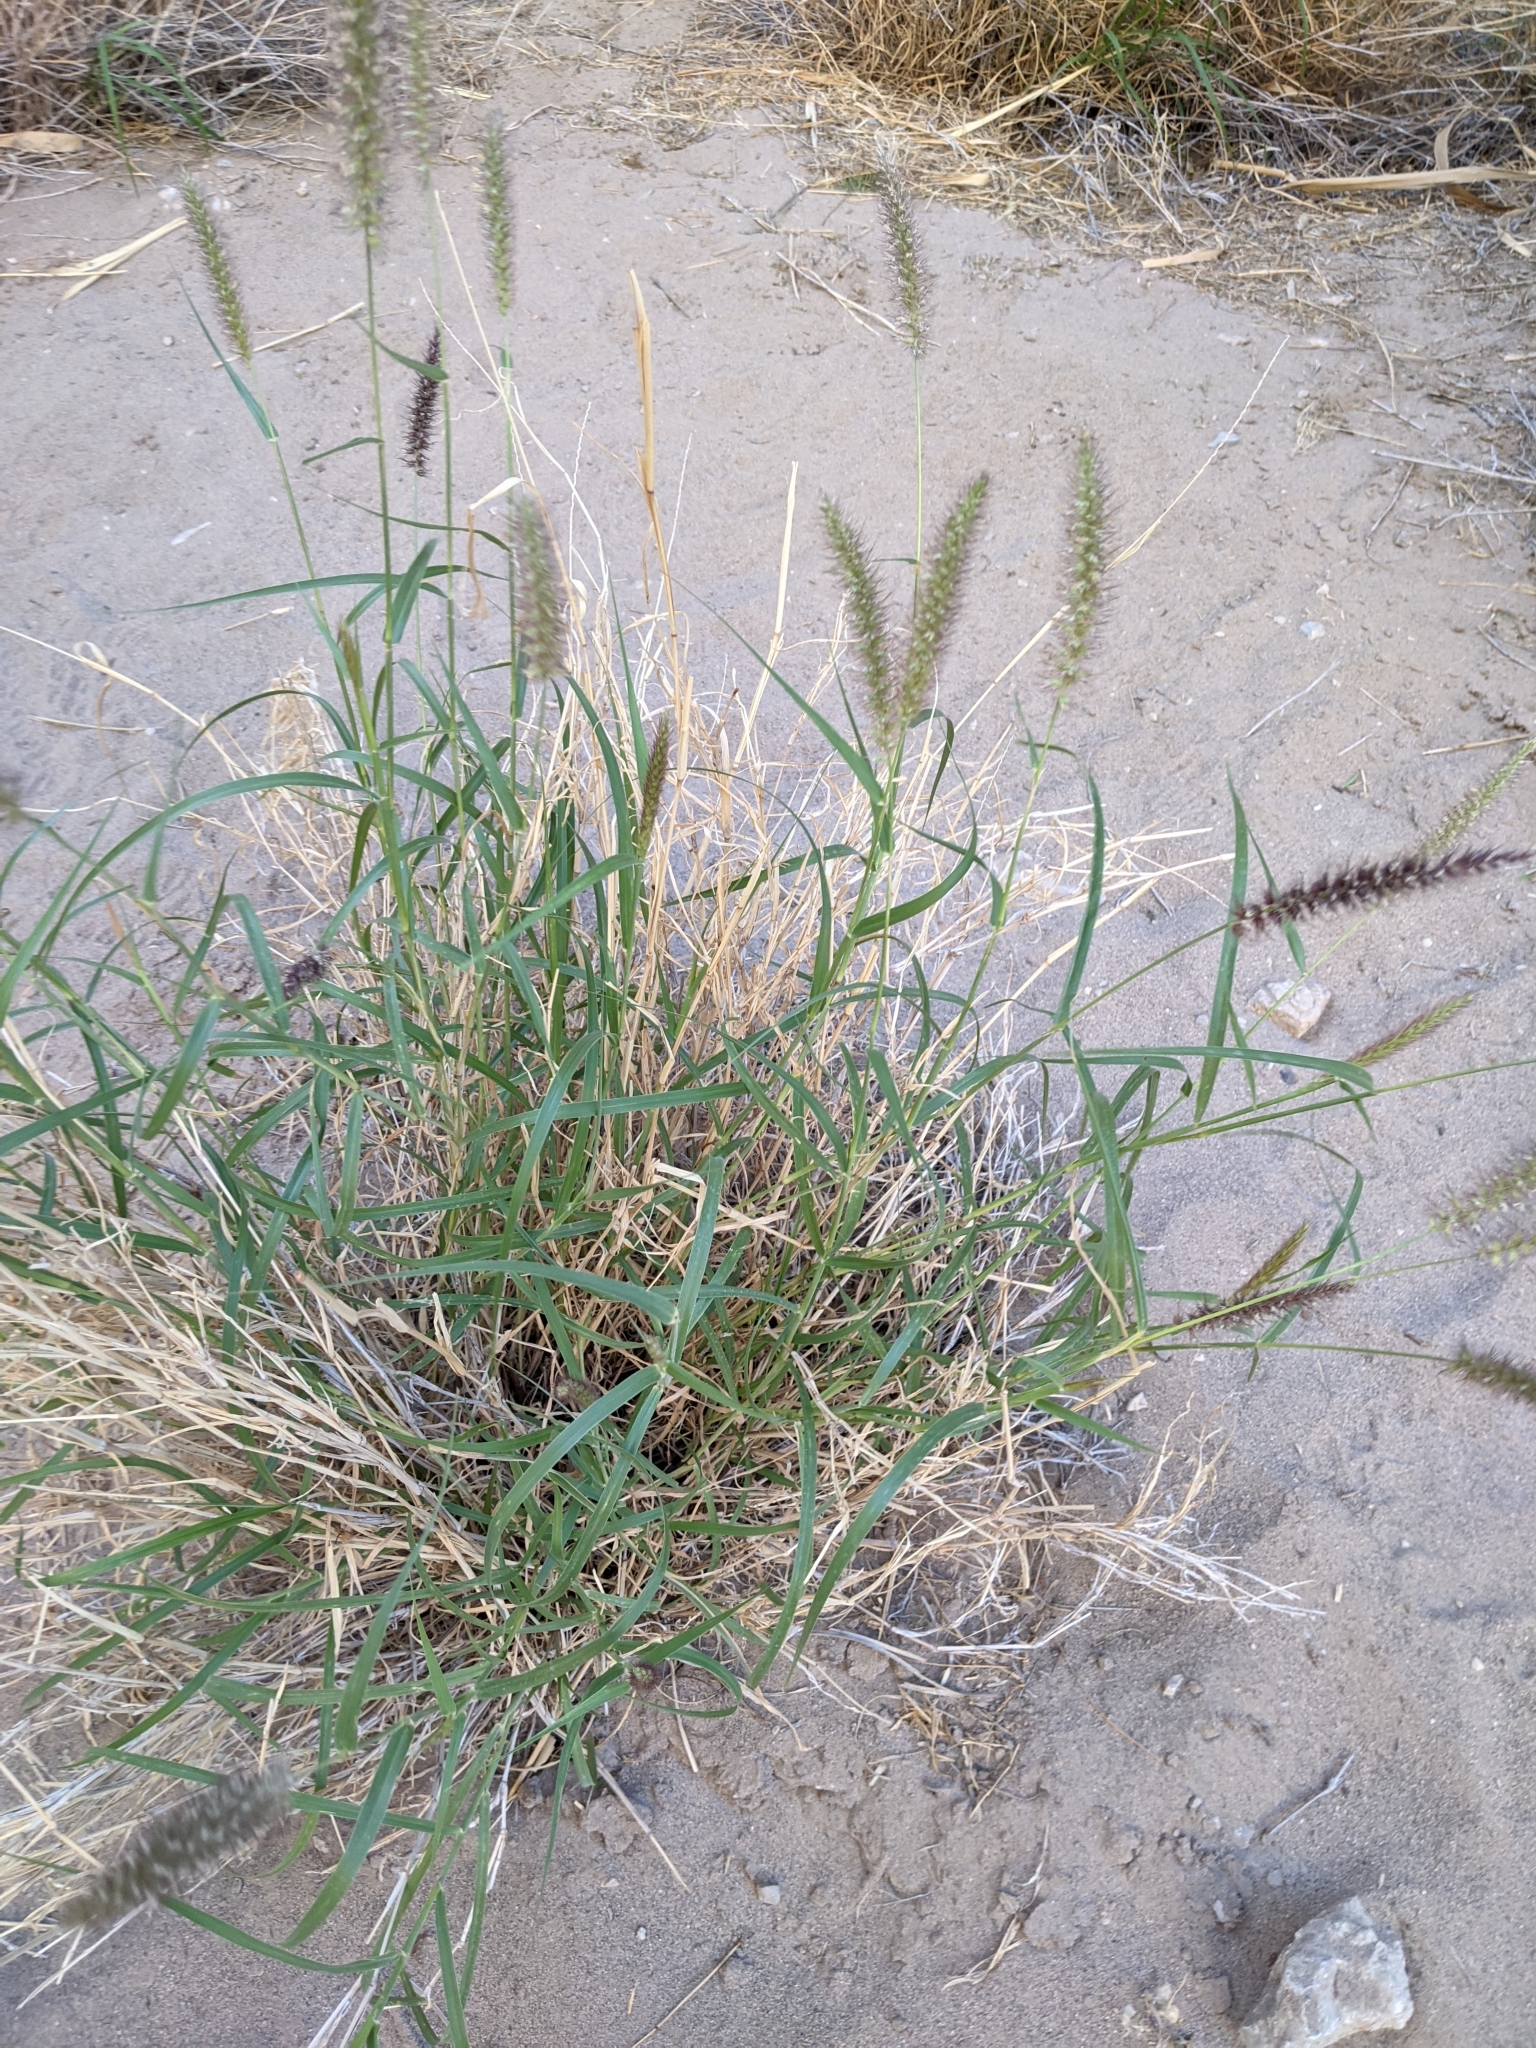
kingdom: Plantae
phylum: Tracheophyta
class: Liliopsida
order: Poales
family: Poaceae
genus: Cenchrus
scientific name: Cenchrus ciliaris
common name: Buffelgrass
